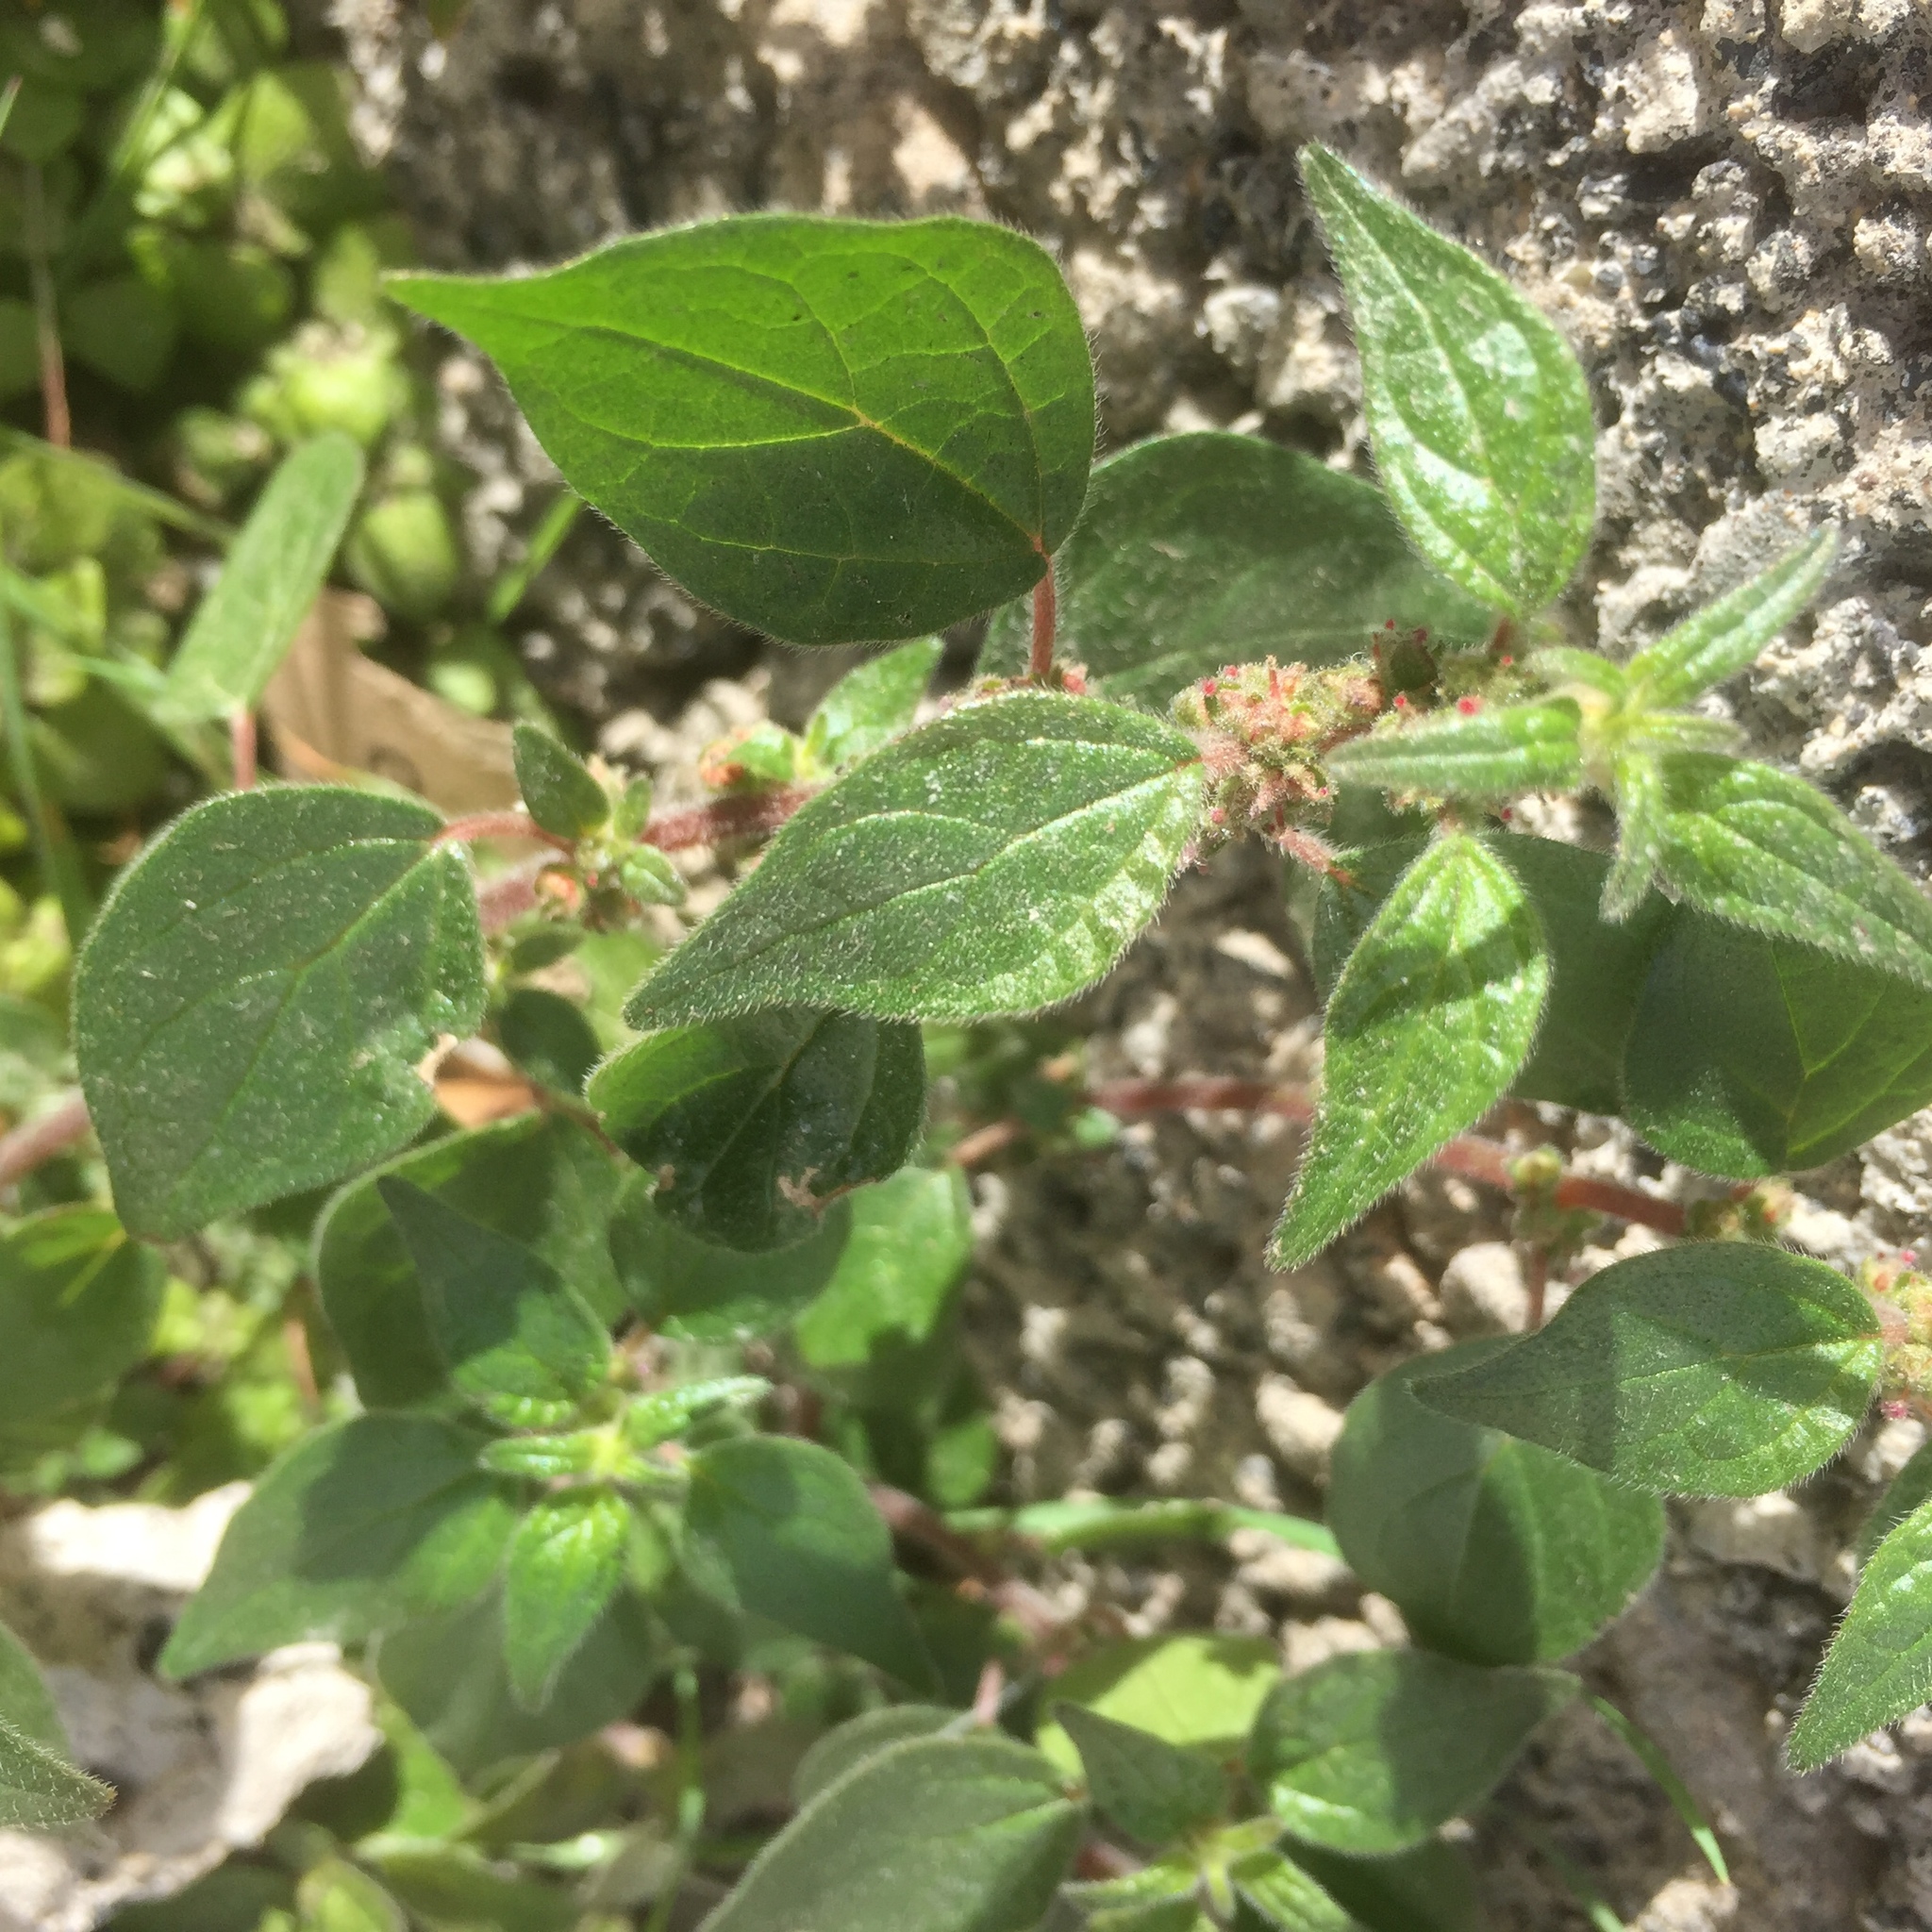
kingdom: Plantae
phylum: Tracheophyta
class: Magnoliopsida
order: Rosales
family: Urticaceae
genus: Parietaria
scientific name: Parietaria judaica
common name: Pellitory-of-the-wall
